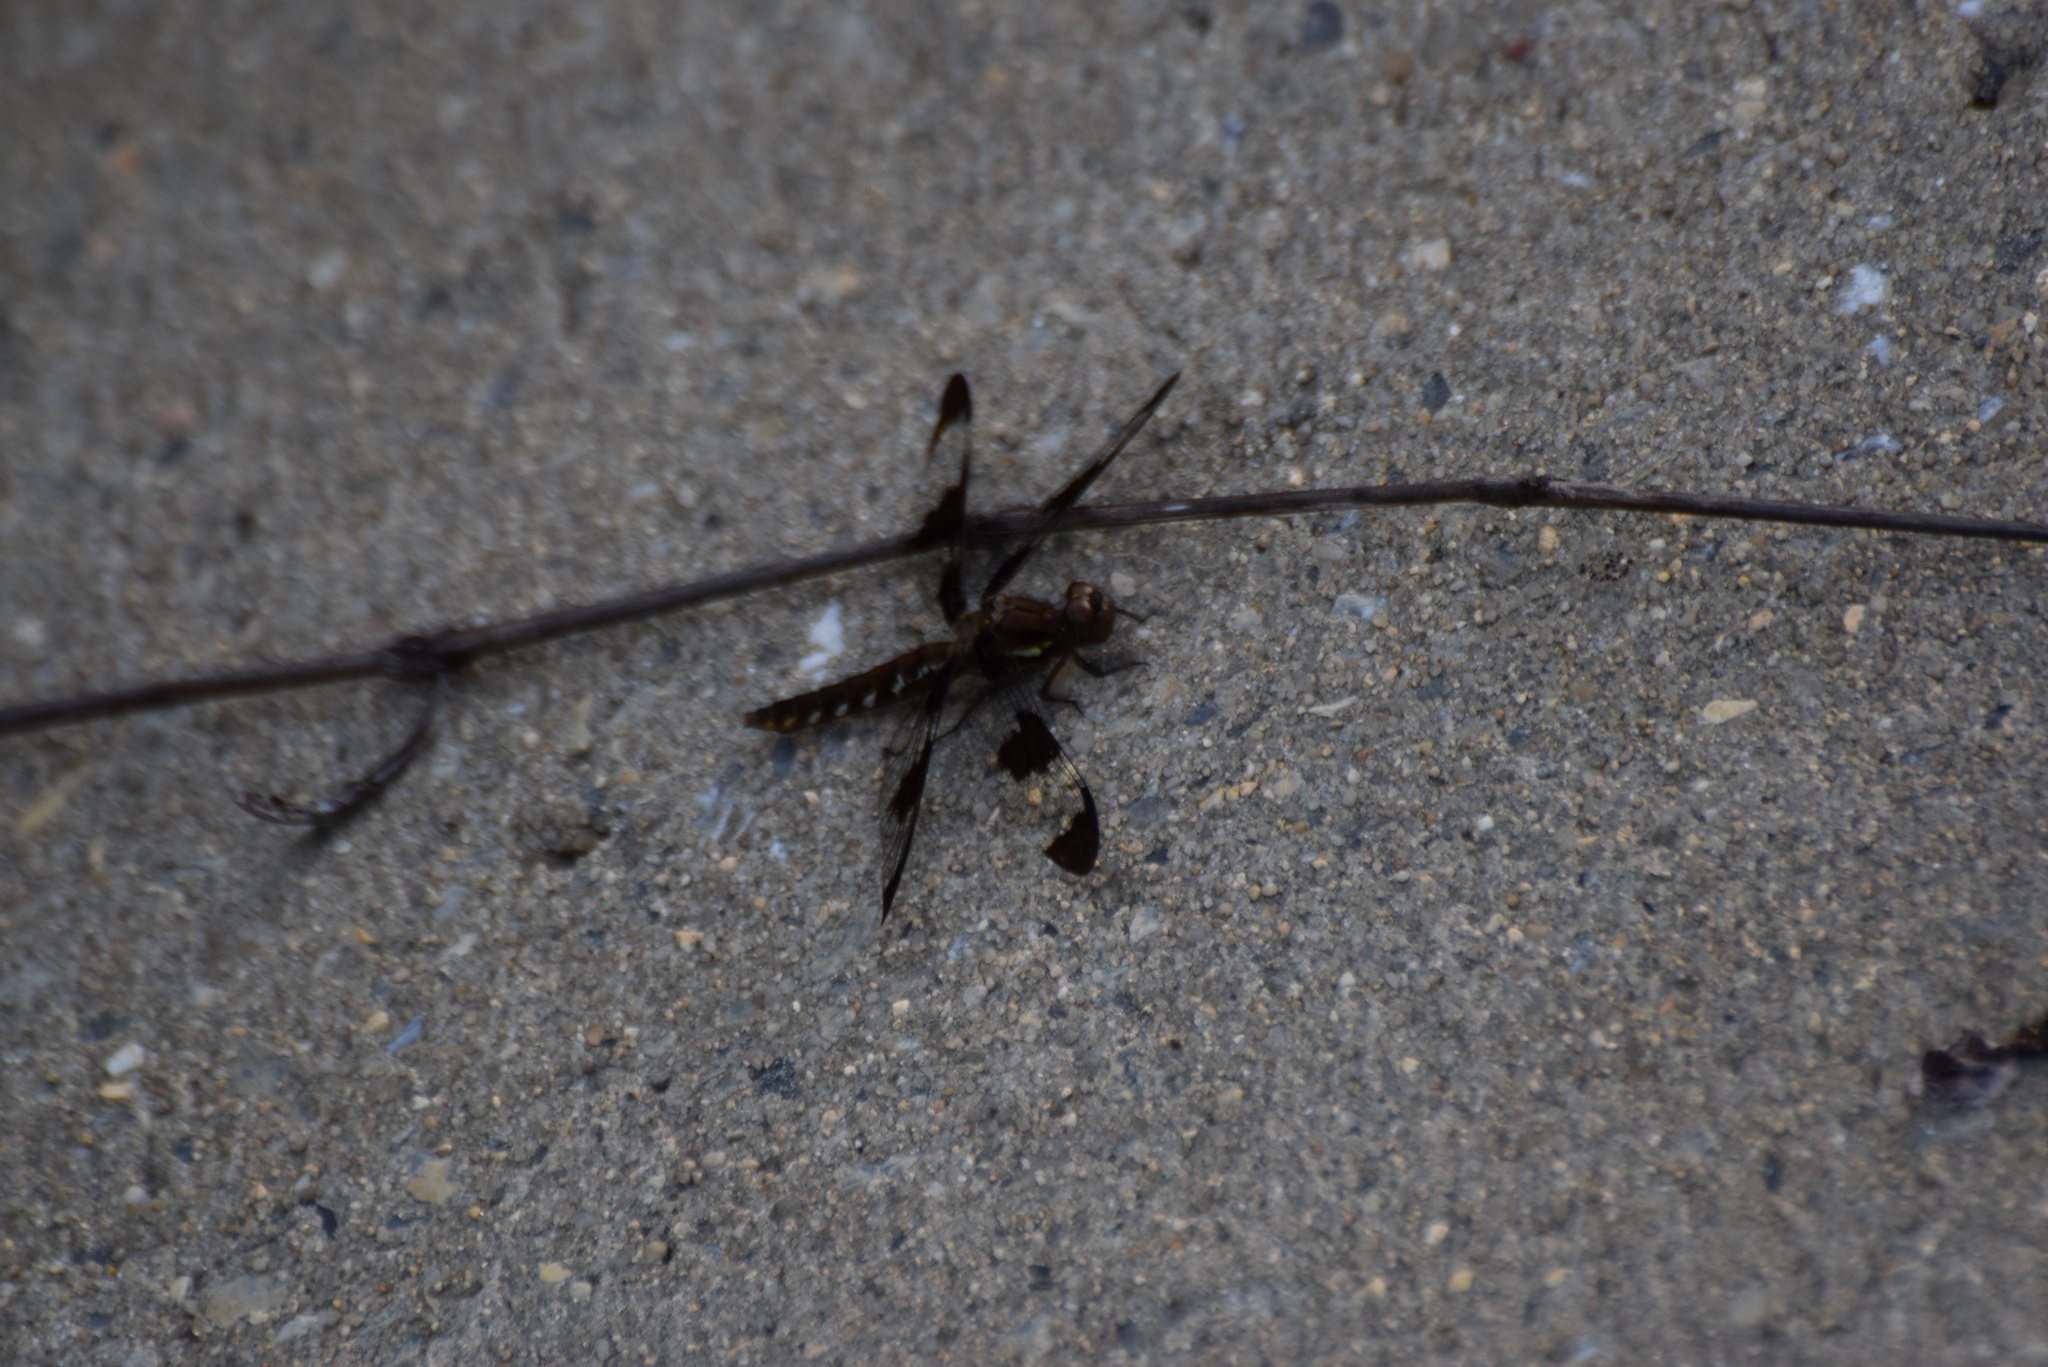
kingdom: Animalia
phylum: Arthropoda
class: Insecta
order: Odonata
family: Libellulidae
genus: Plathemis
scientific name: Plathemis lydia
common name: Common whitetail
